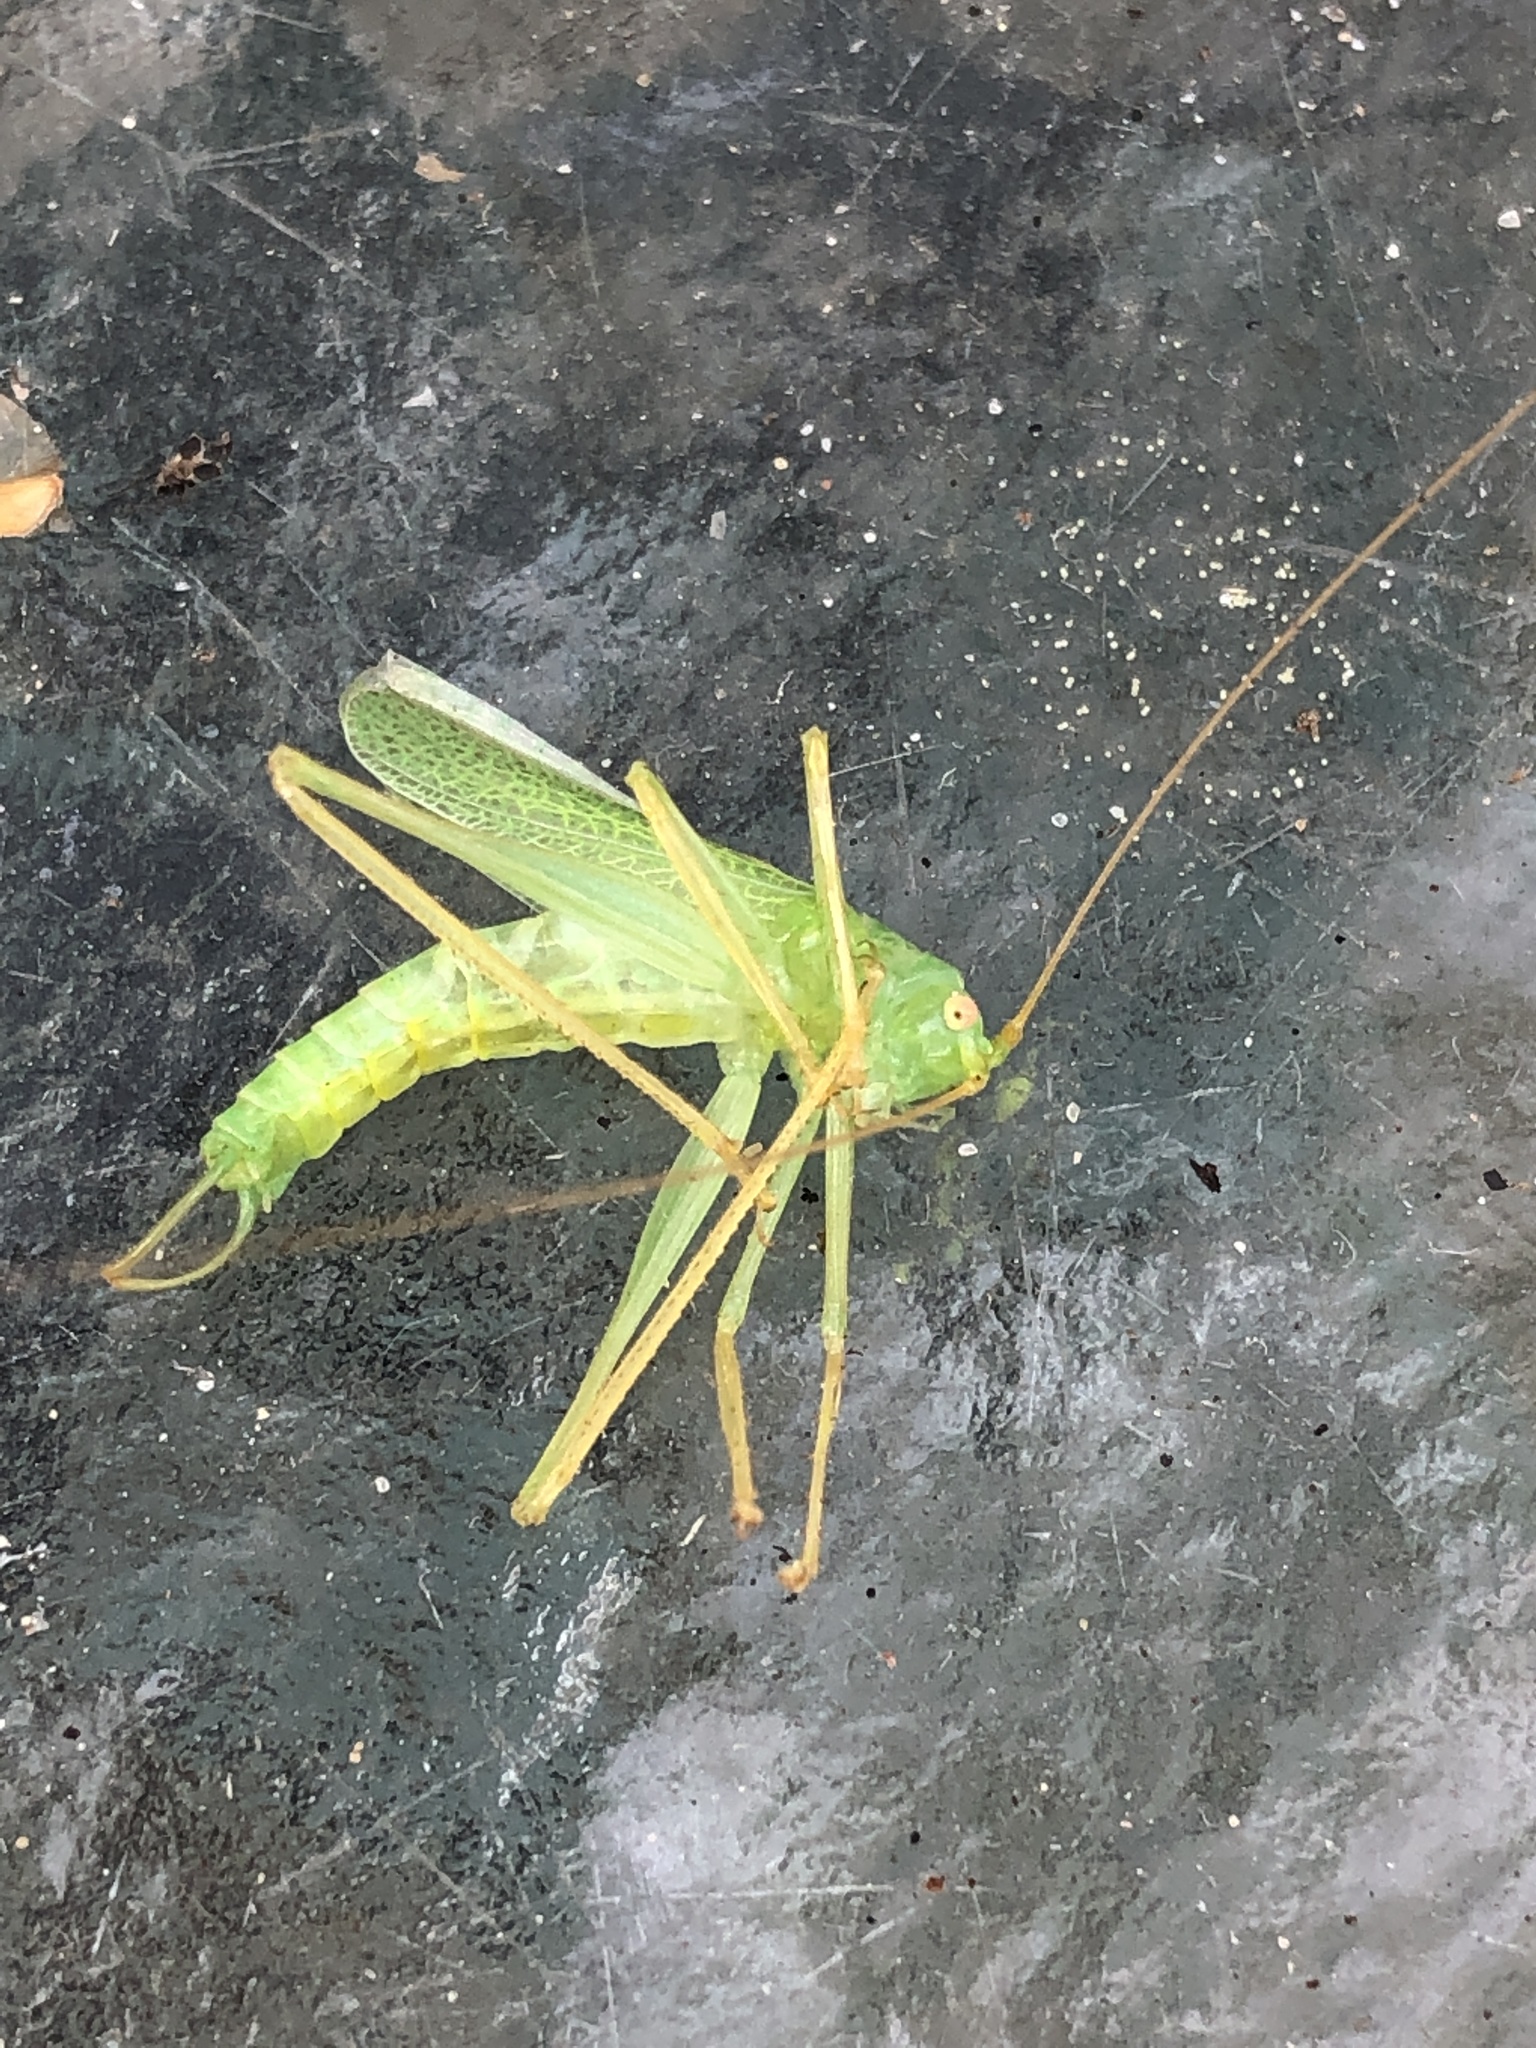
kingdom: Animalia
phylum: Arthropoda
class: Insecta
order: Orthoptera
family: Tettigoniidae
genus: Meconema
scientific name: Meconema thalassinum
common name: Oak bush-cricket
